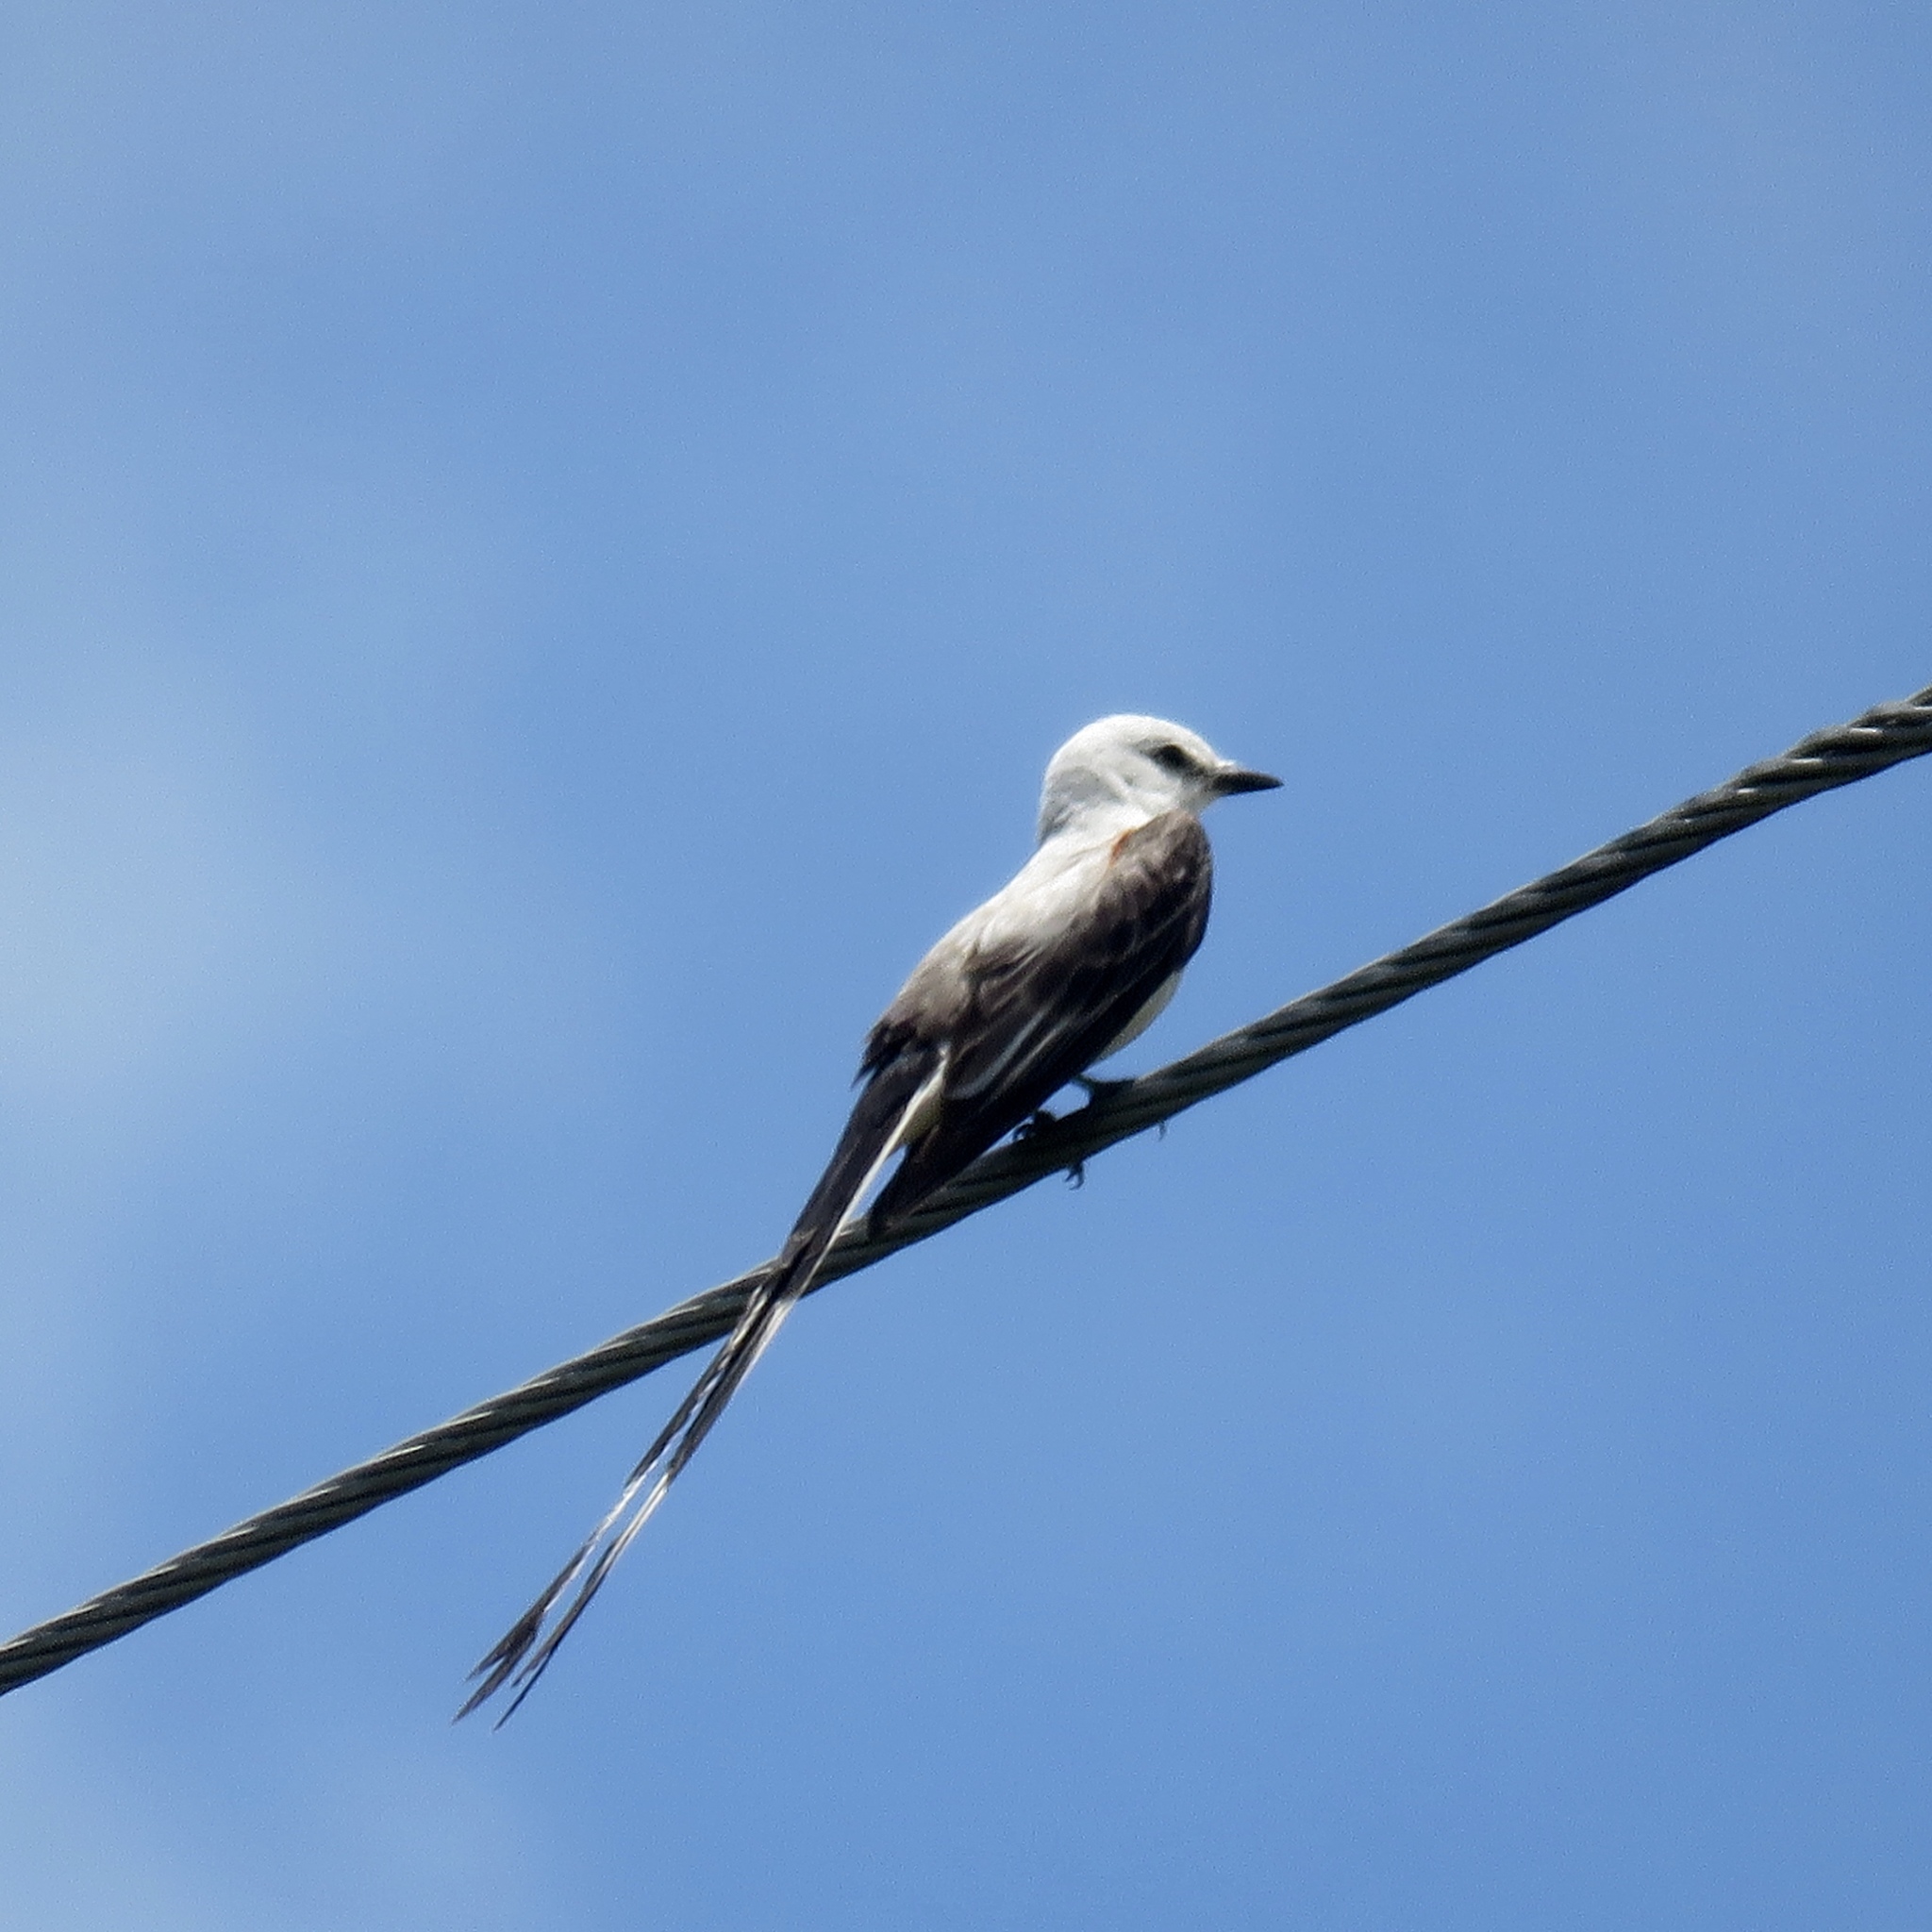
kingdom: Animalia
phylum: Chordata
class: Aves
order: Passeriformes
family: Tyrannidae
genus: Tyrannus
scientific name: Tyrannus forficatus
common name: Scissor-tailed flycatcher
